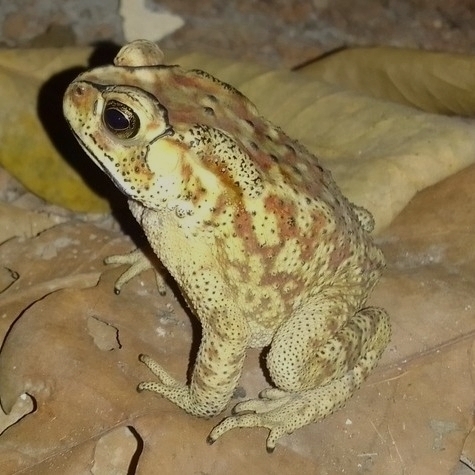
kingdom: Animalia
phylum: Chordata
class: Amphibia
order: Anura
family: Bufonidae
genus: Duttaphrynus
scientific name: Duttaphrynus melanostictus
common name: Common sunda toad
